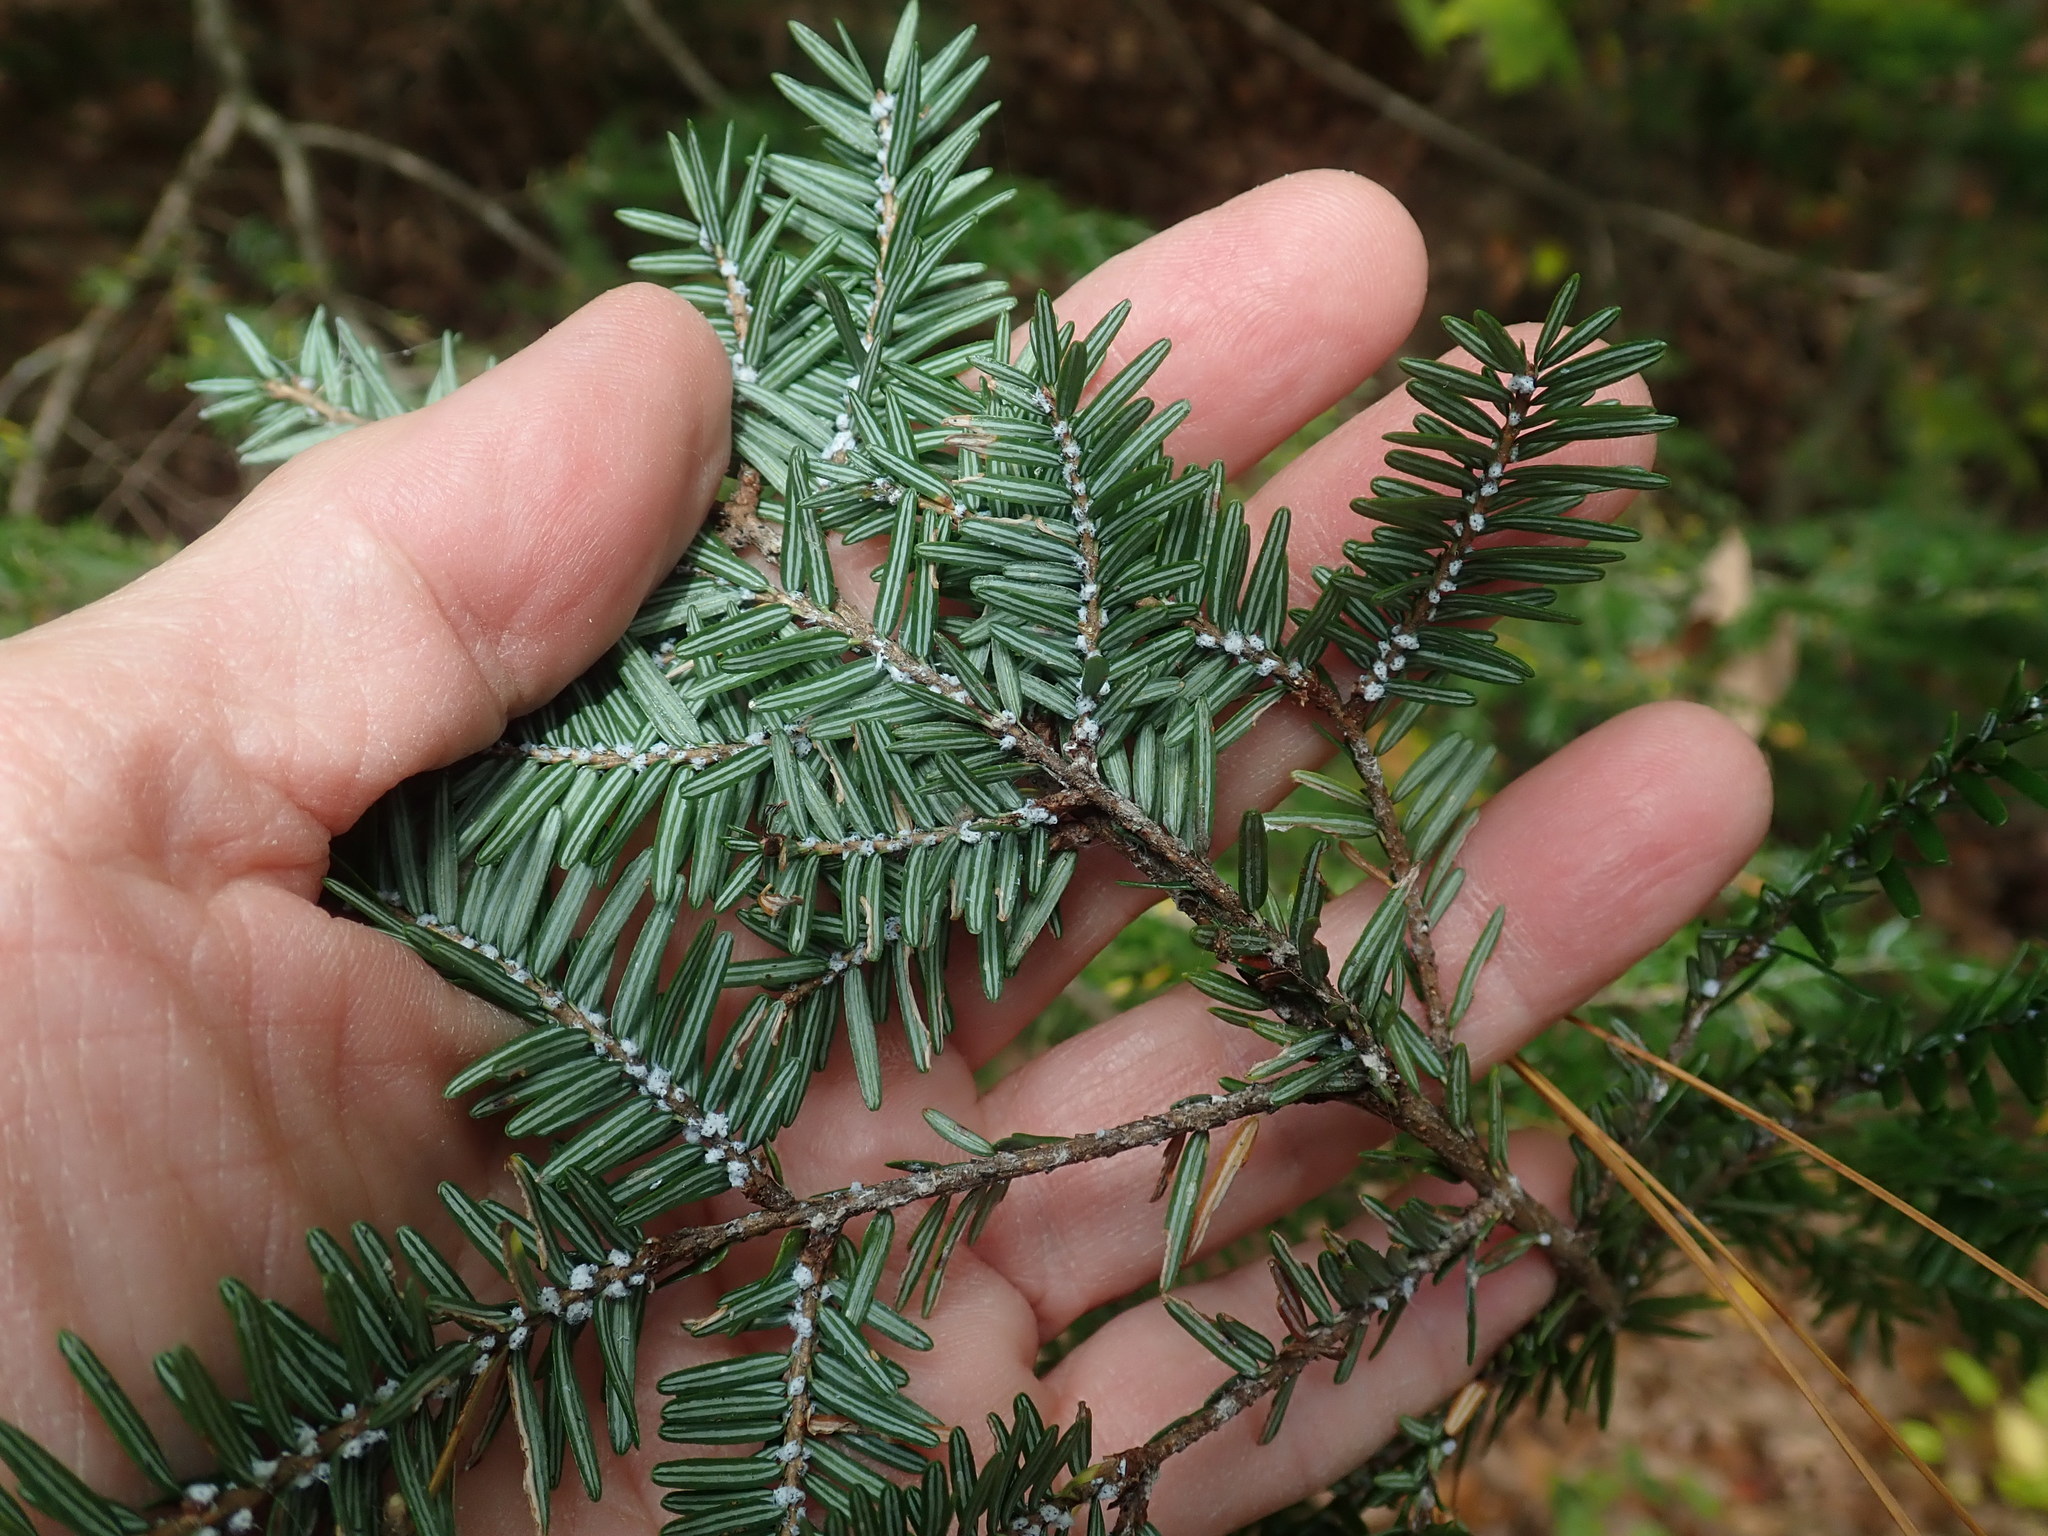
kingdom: Plantae
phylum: Tracheophyta
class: Pinopsida
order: Pinales
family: Pinaceae
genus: Tsuga
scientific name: Tsuga canadensis
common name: Eastern hemlock
